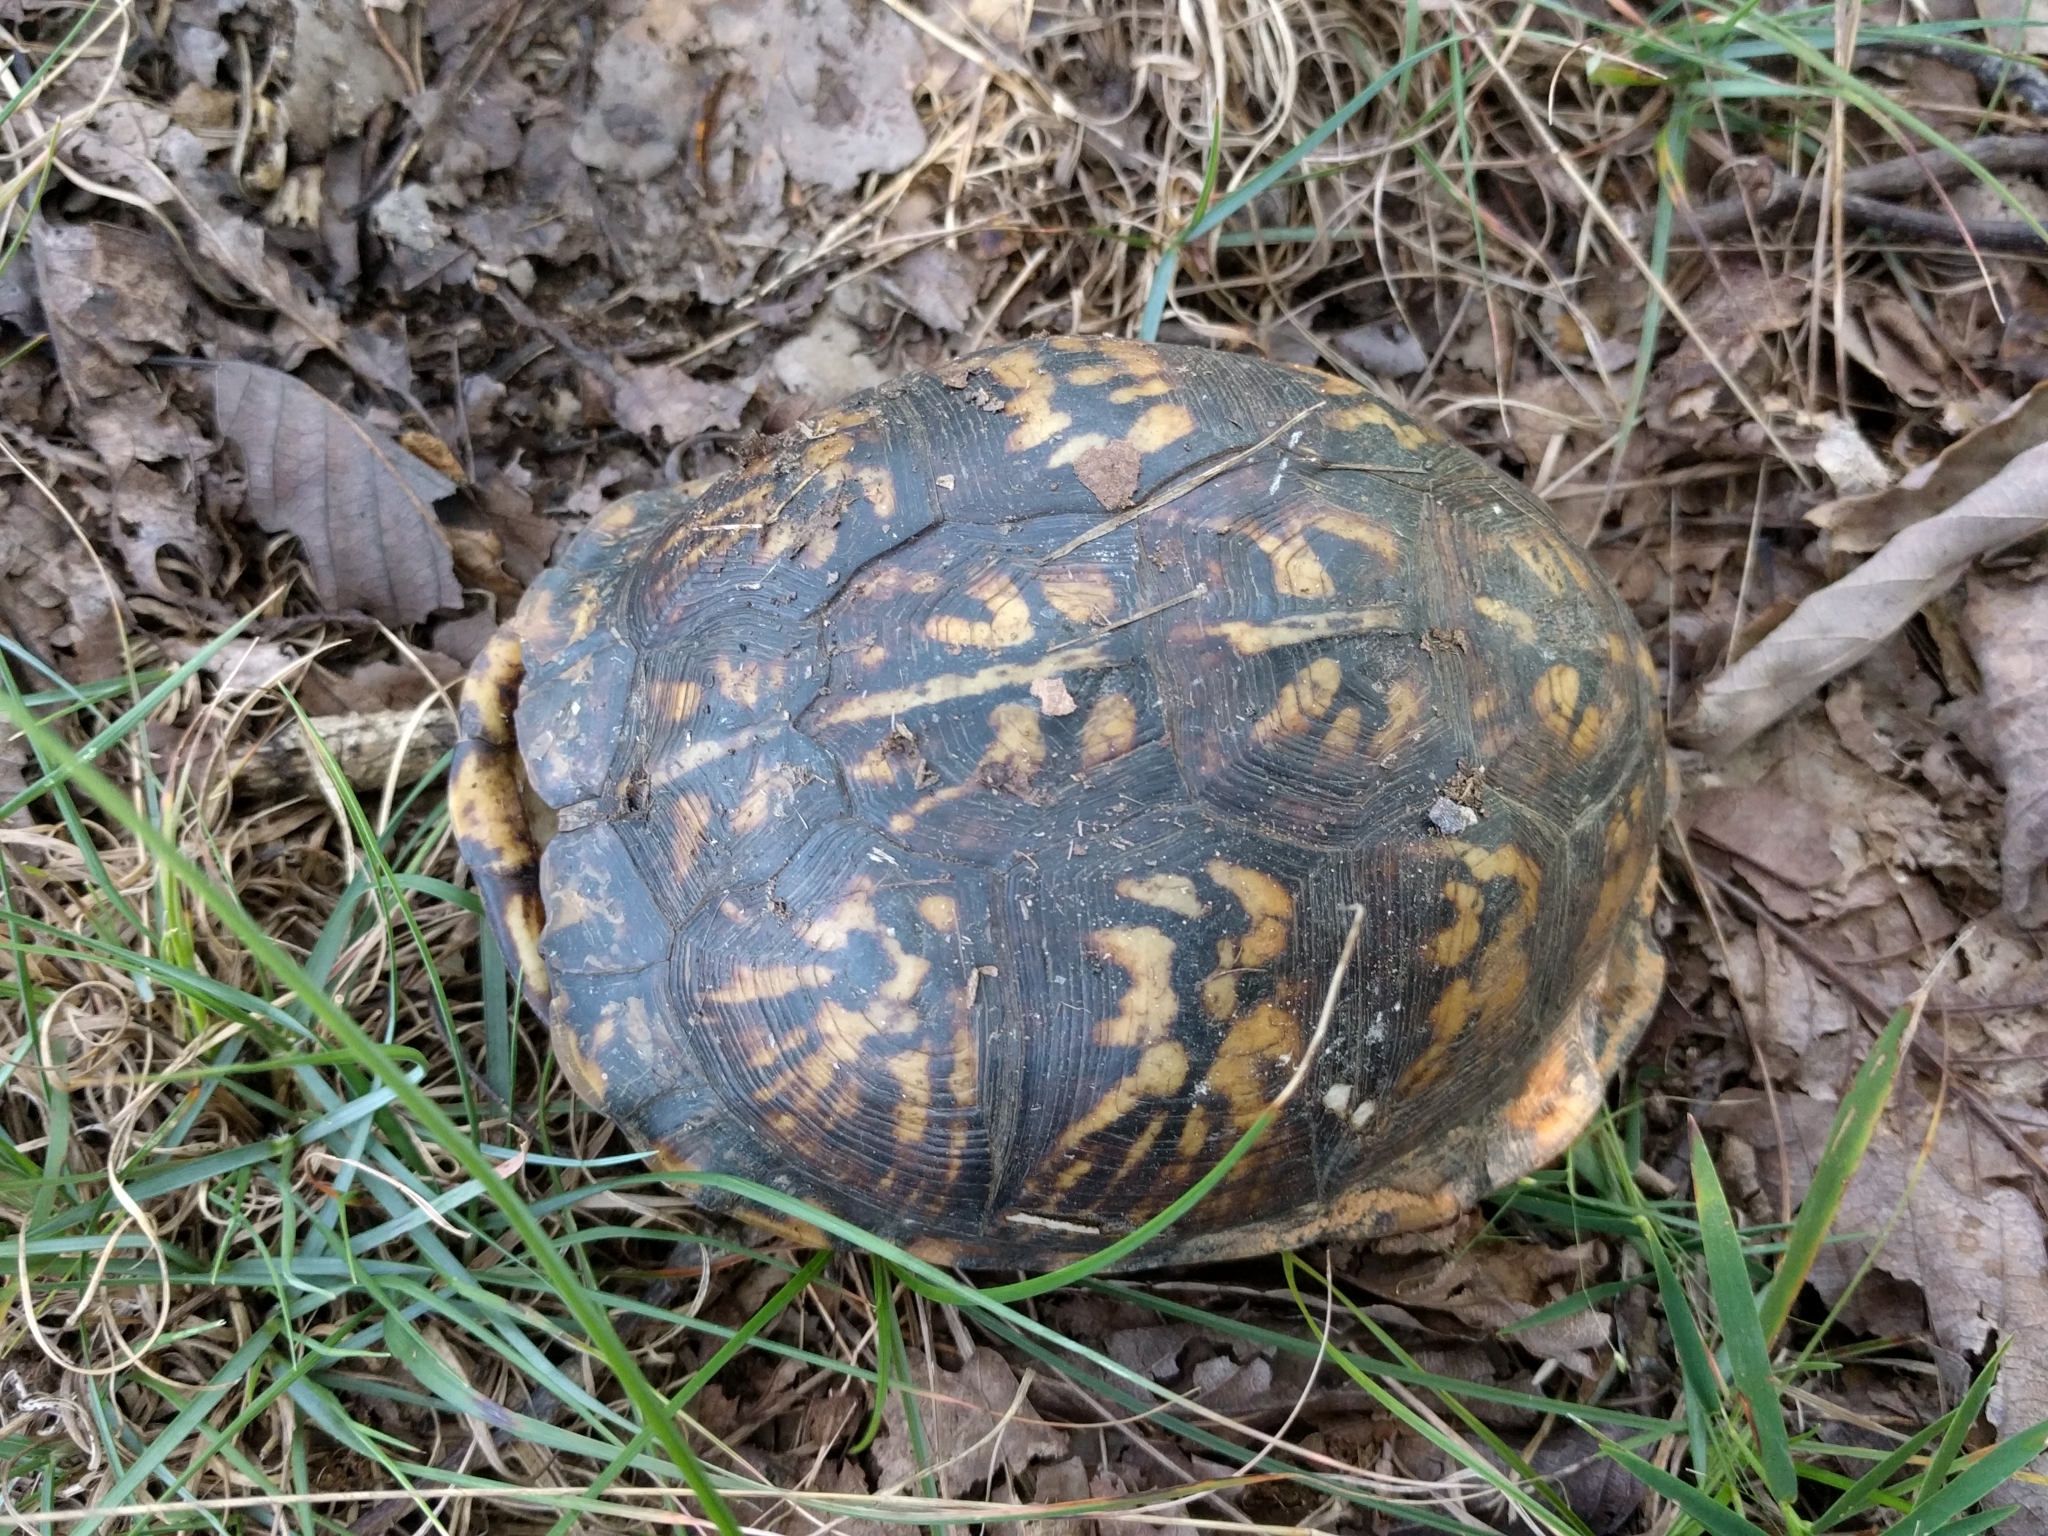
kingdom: Animalia
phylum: Chordata
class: Testudines
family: Emydidae
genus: Terrapene
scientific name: Terrapene carolina
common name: Common box turtle
